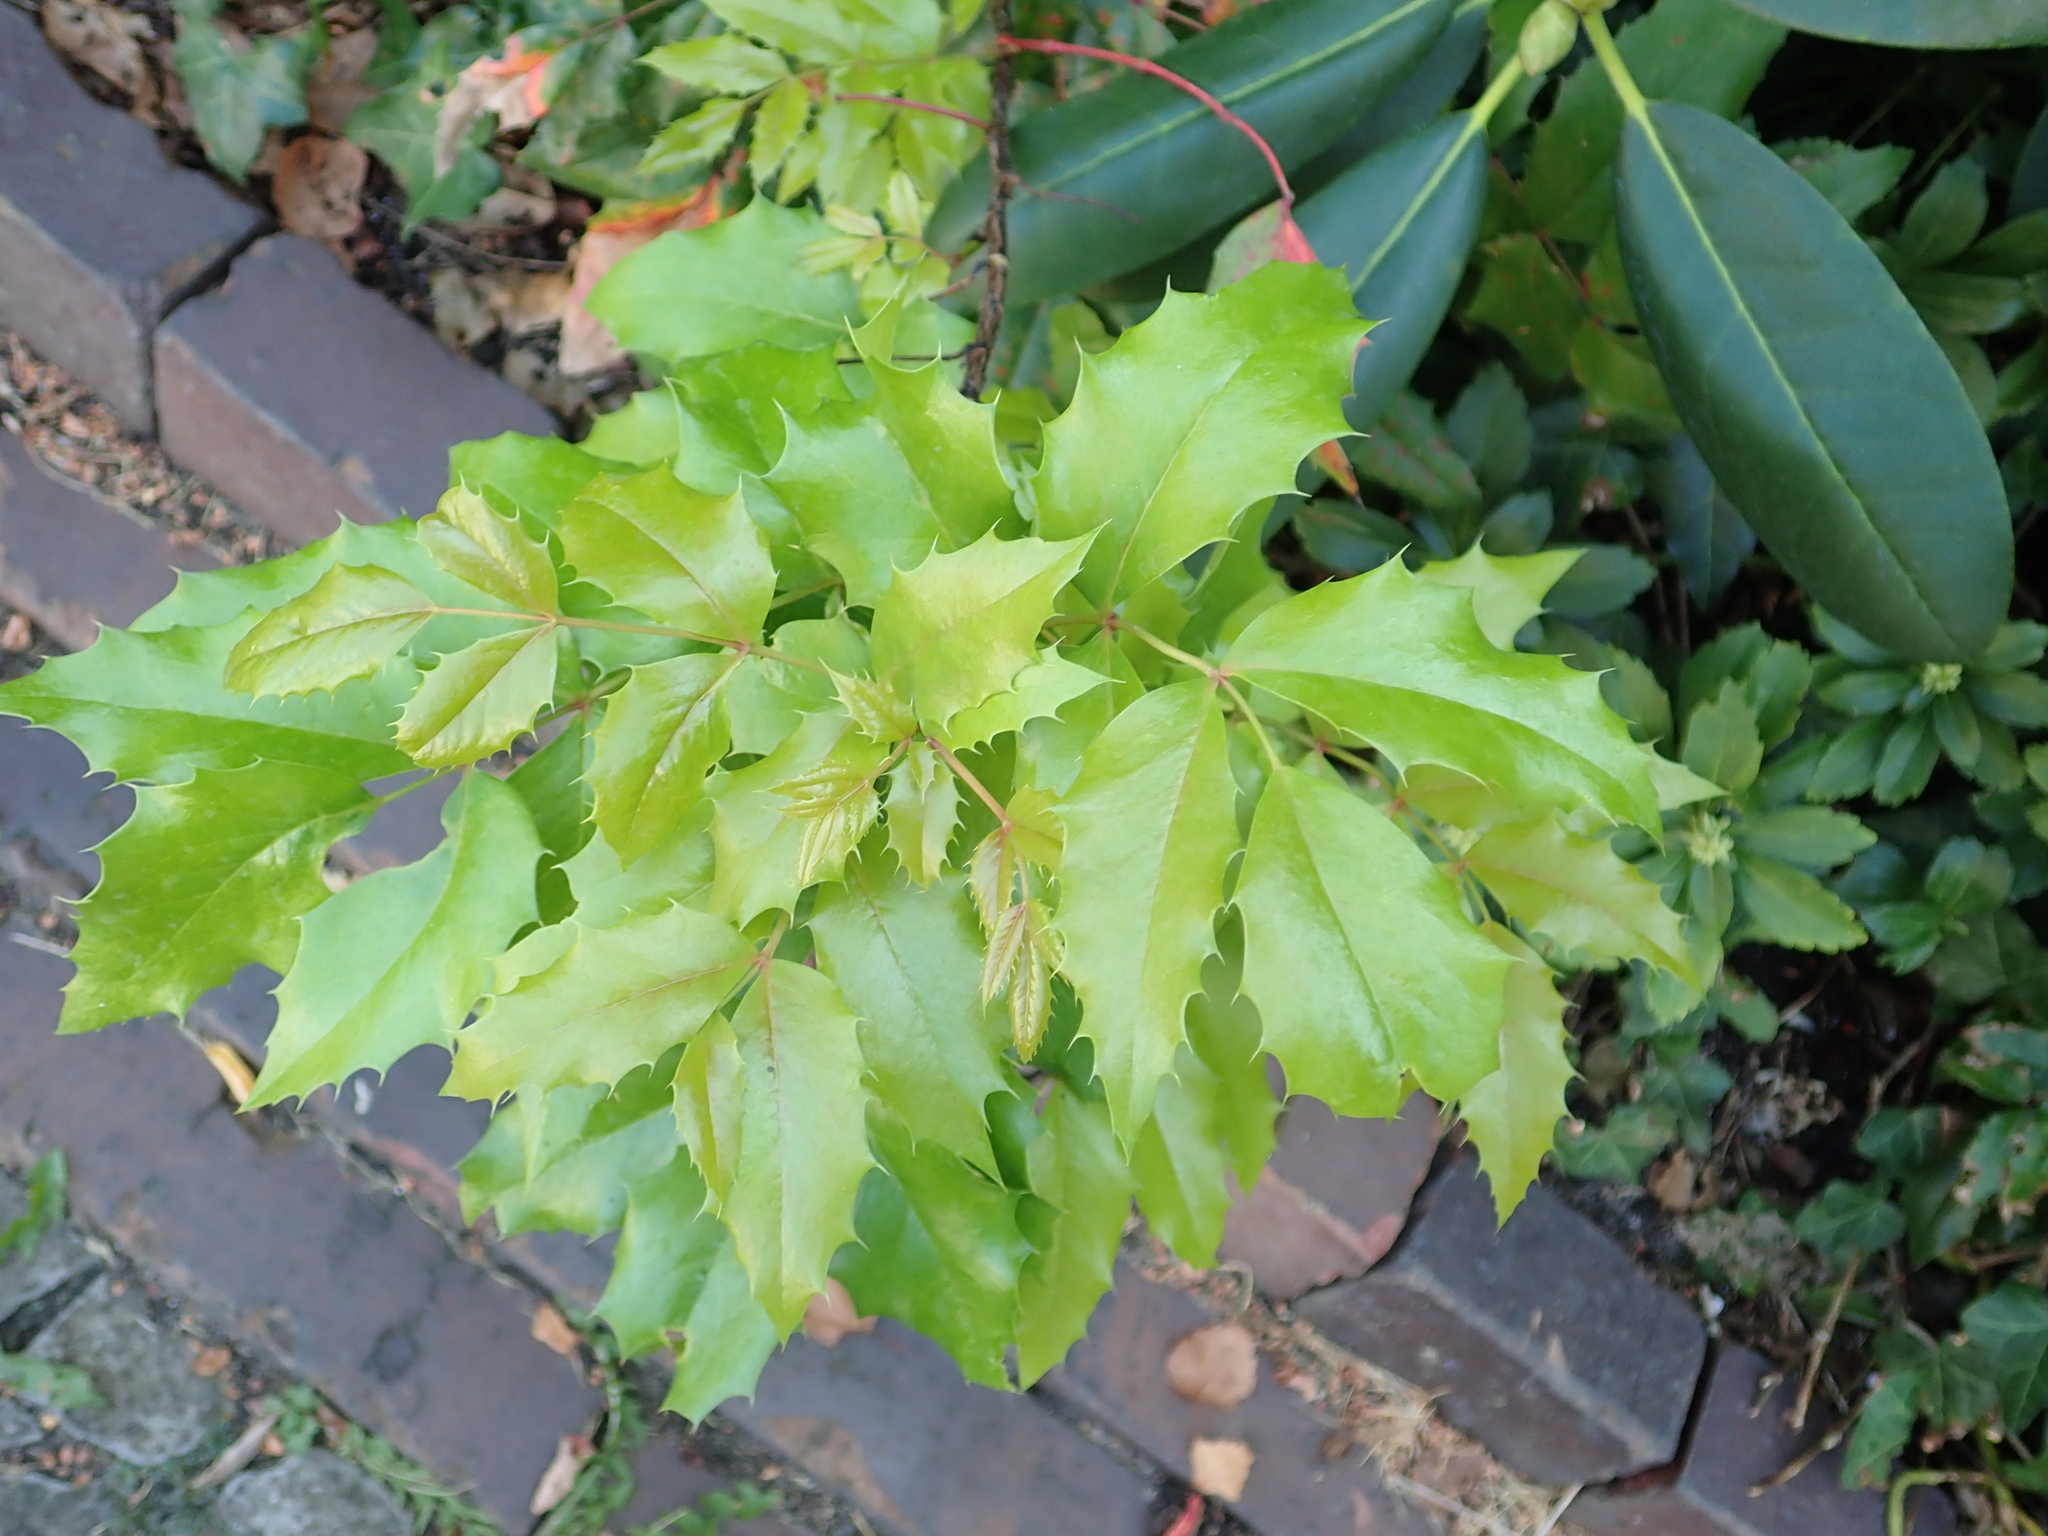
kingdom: Plantae
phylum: Tracheophyta
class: Magnoliopsida
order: Ranunculales
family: Berberidaceae
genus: Mahonia
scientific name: Mahonia aquifolium
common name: Oregon-grape
